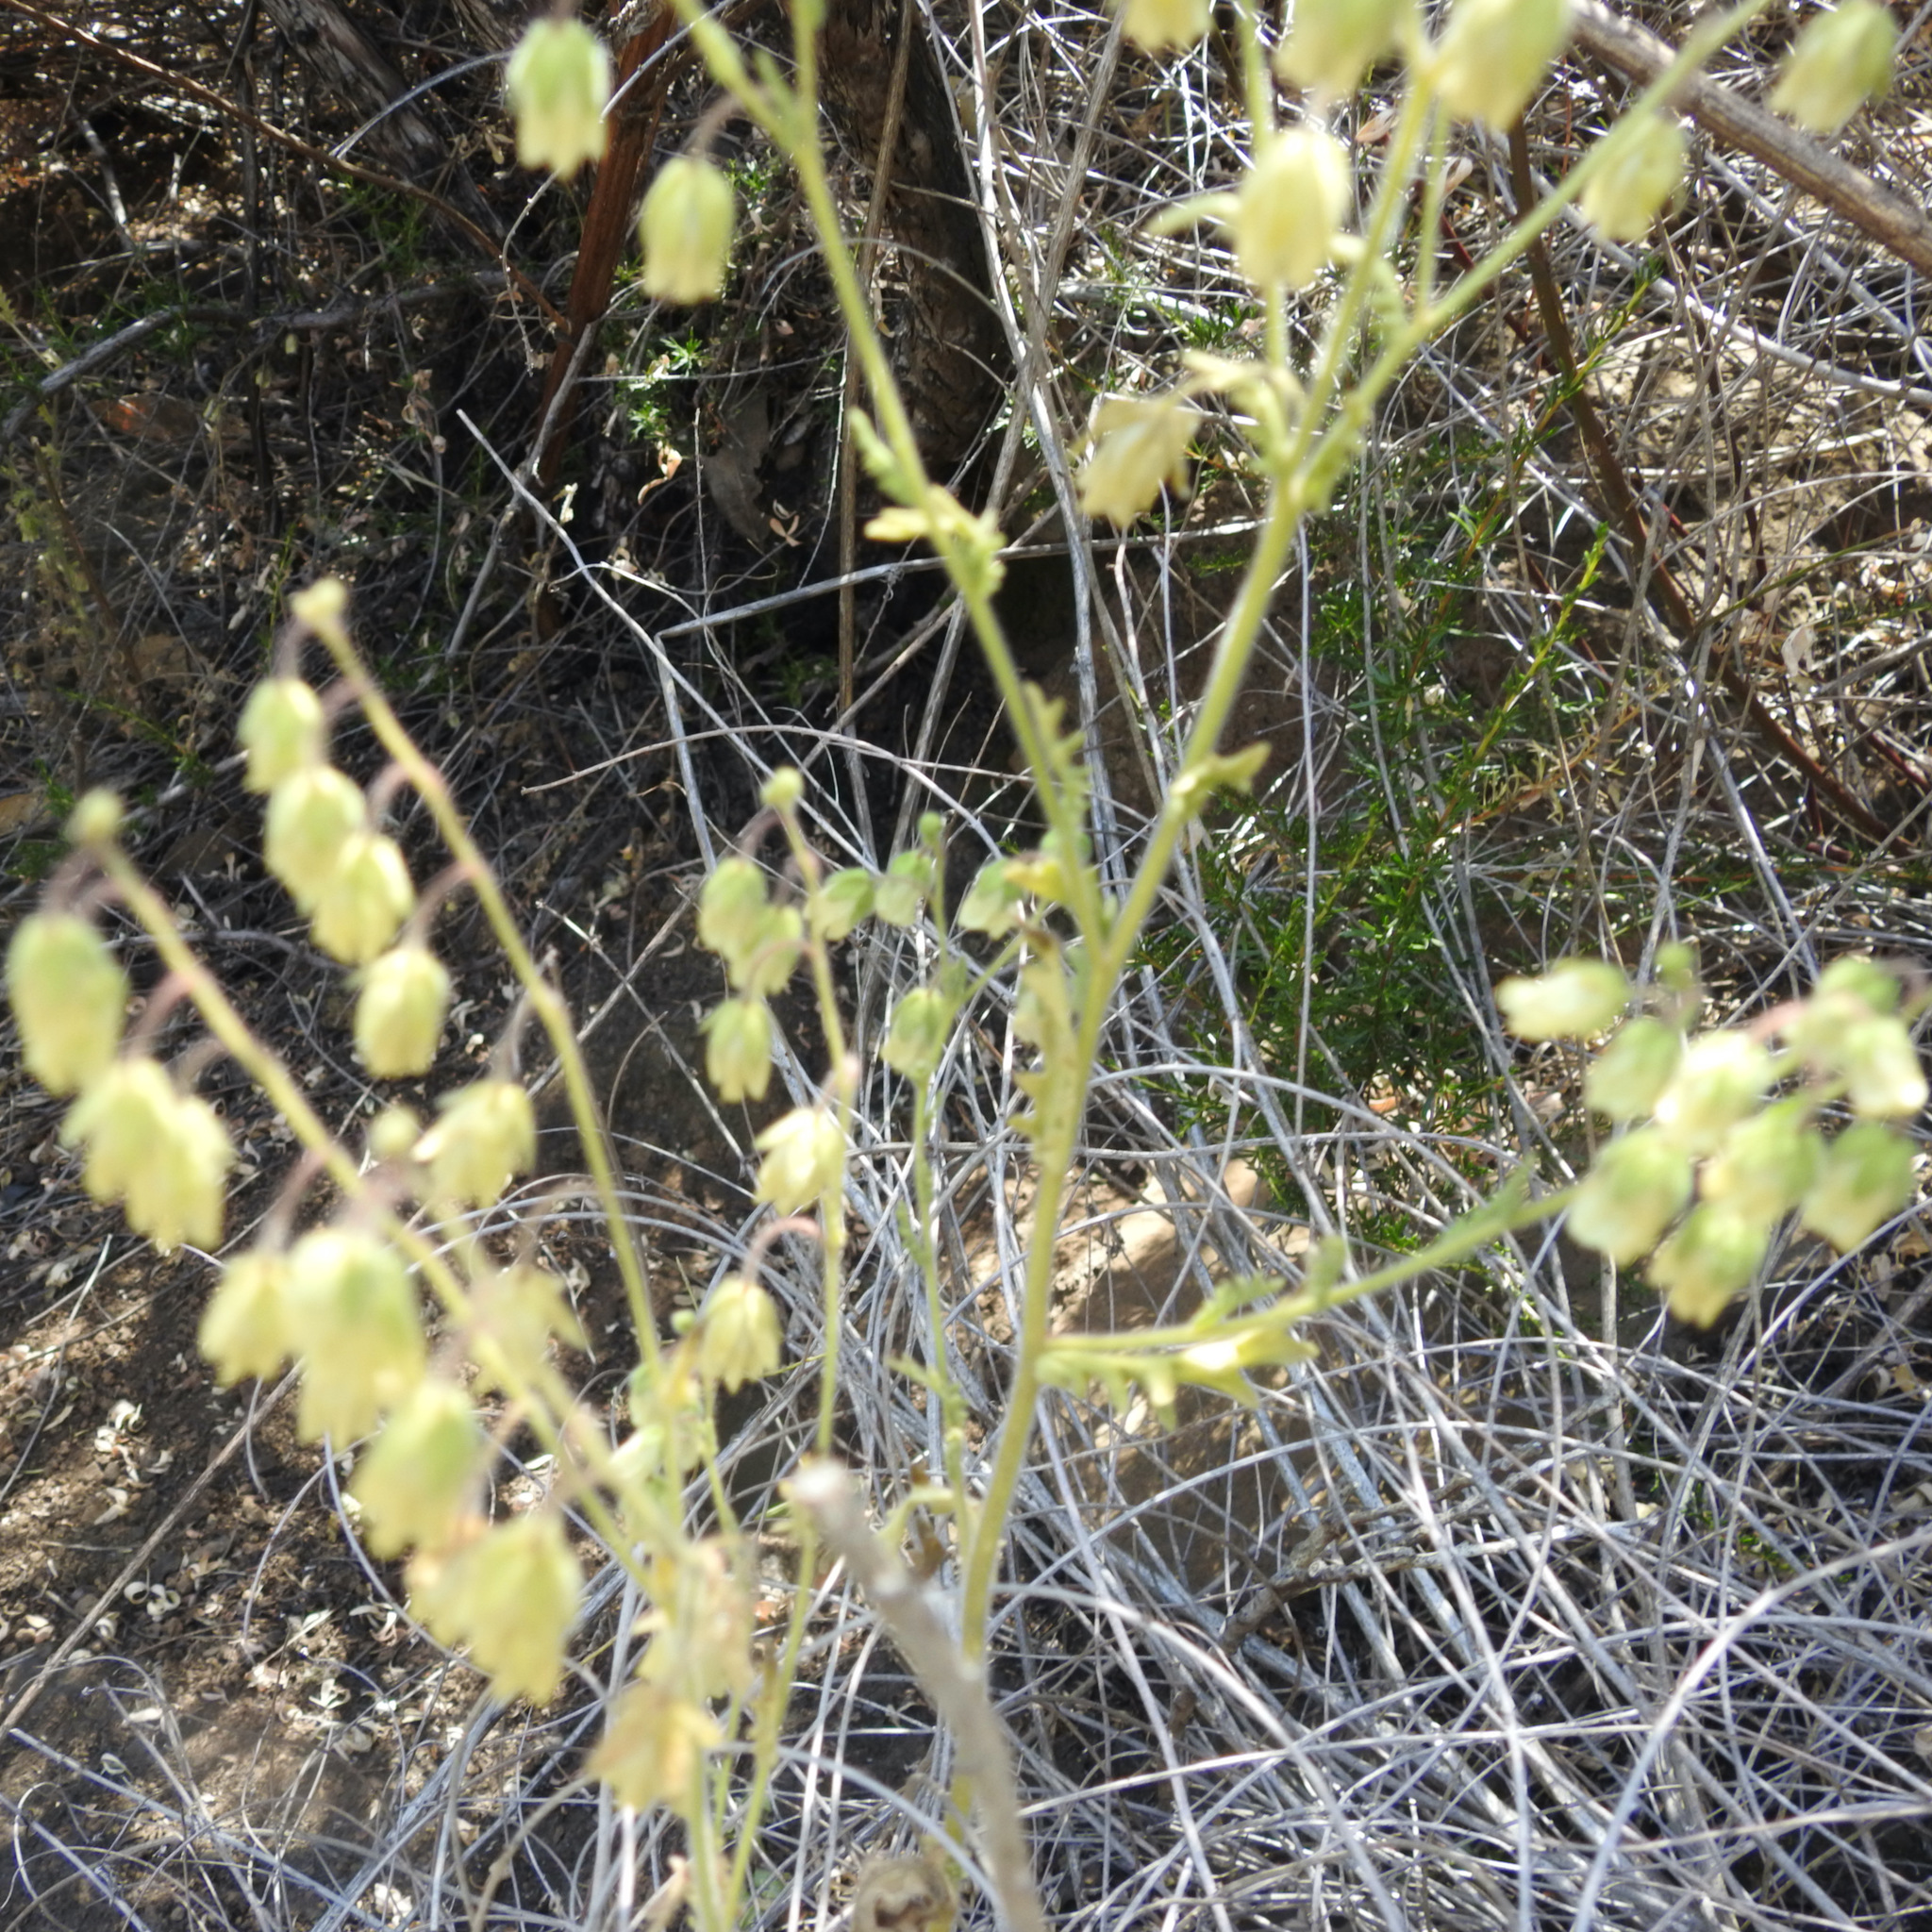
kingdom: Plantae
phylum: Tracheophyta
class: Magnoliopsida
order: Boraginales
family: Hydrophyllaceae
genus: Emmenanthe
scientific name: Emmenanthe penduliflora
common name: Whispering-bells
